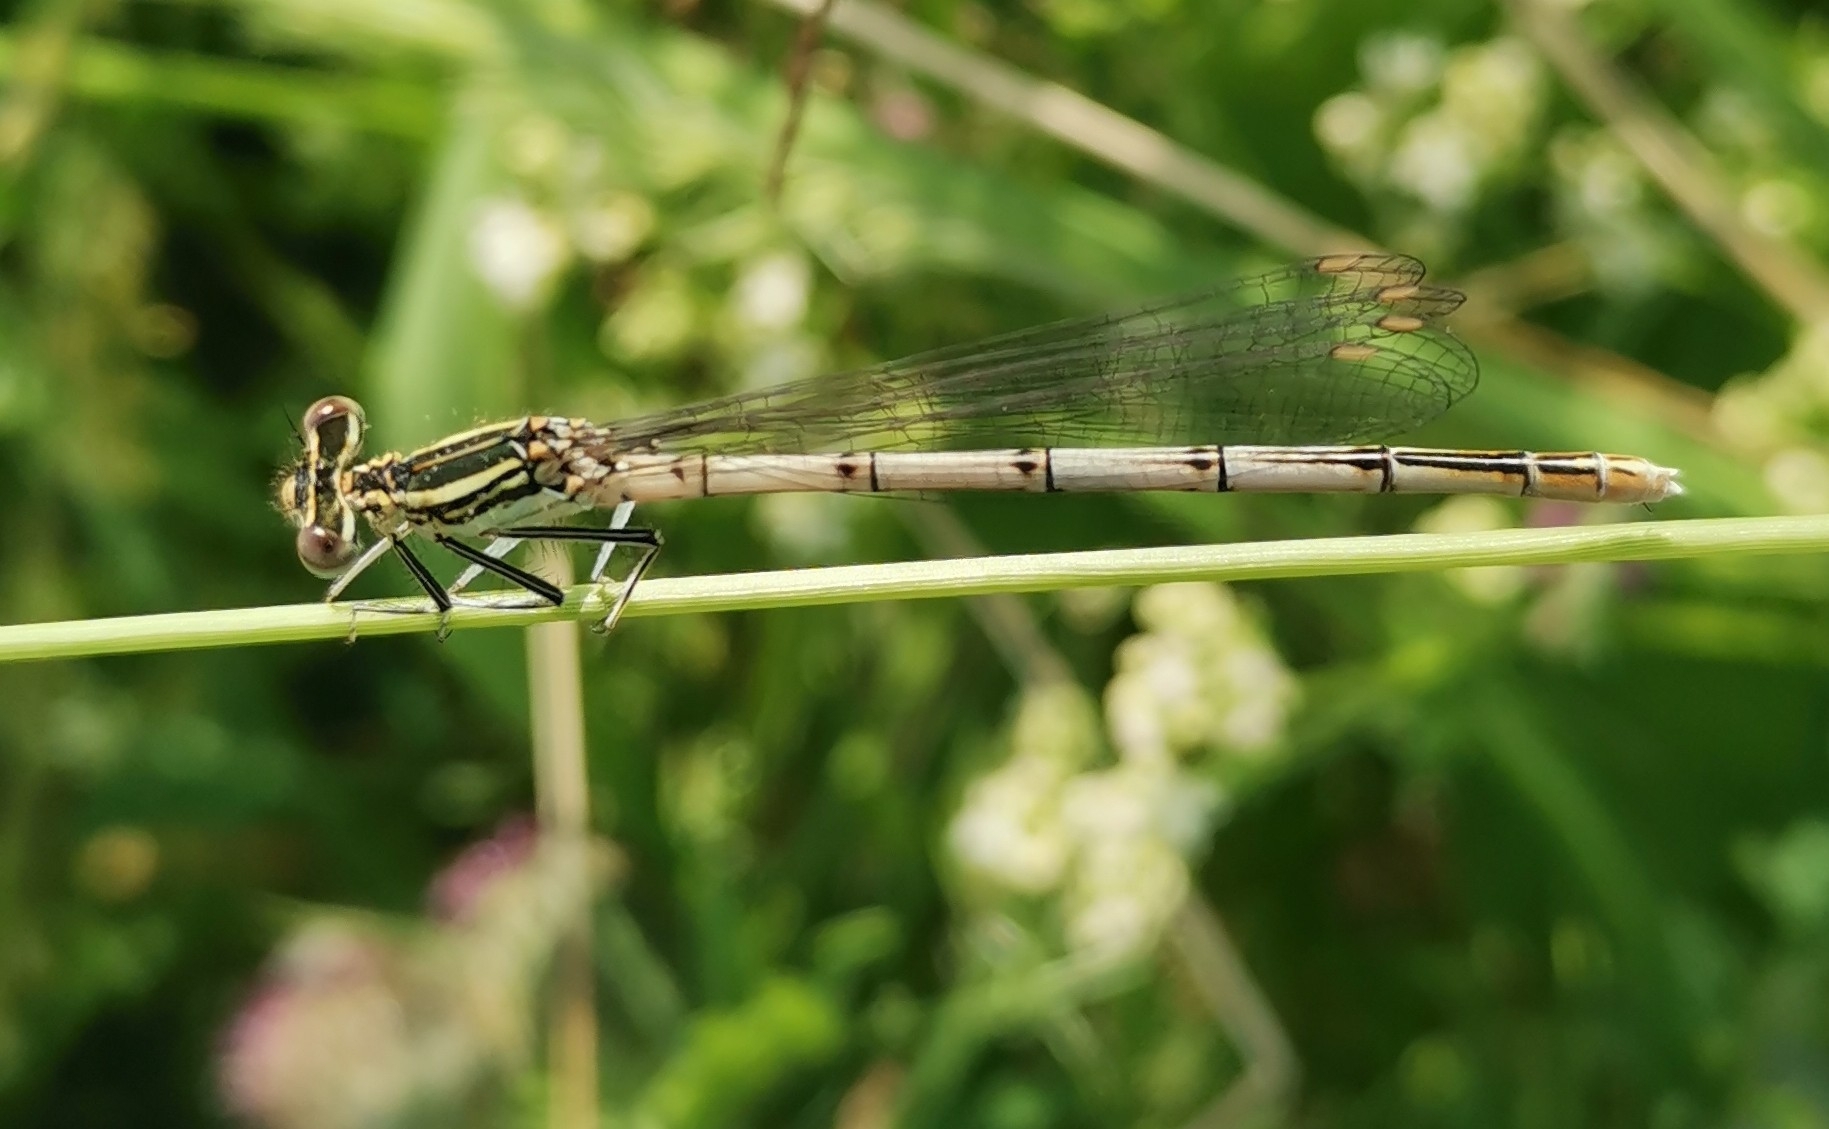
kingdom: Animalia
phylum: Arthropoda
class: Insecta
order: Odonata
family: Platycnemididae
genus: Platycnemis
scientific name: Platycnemis pennipes
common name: White-legged damselfly
